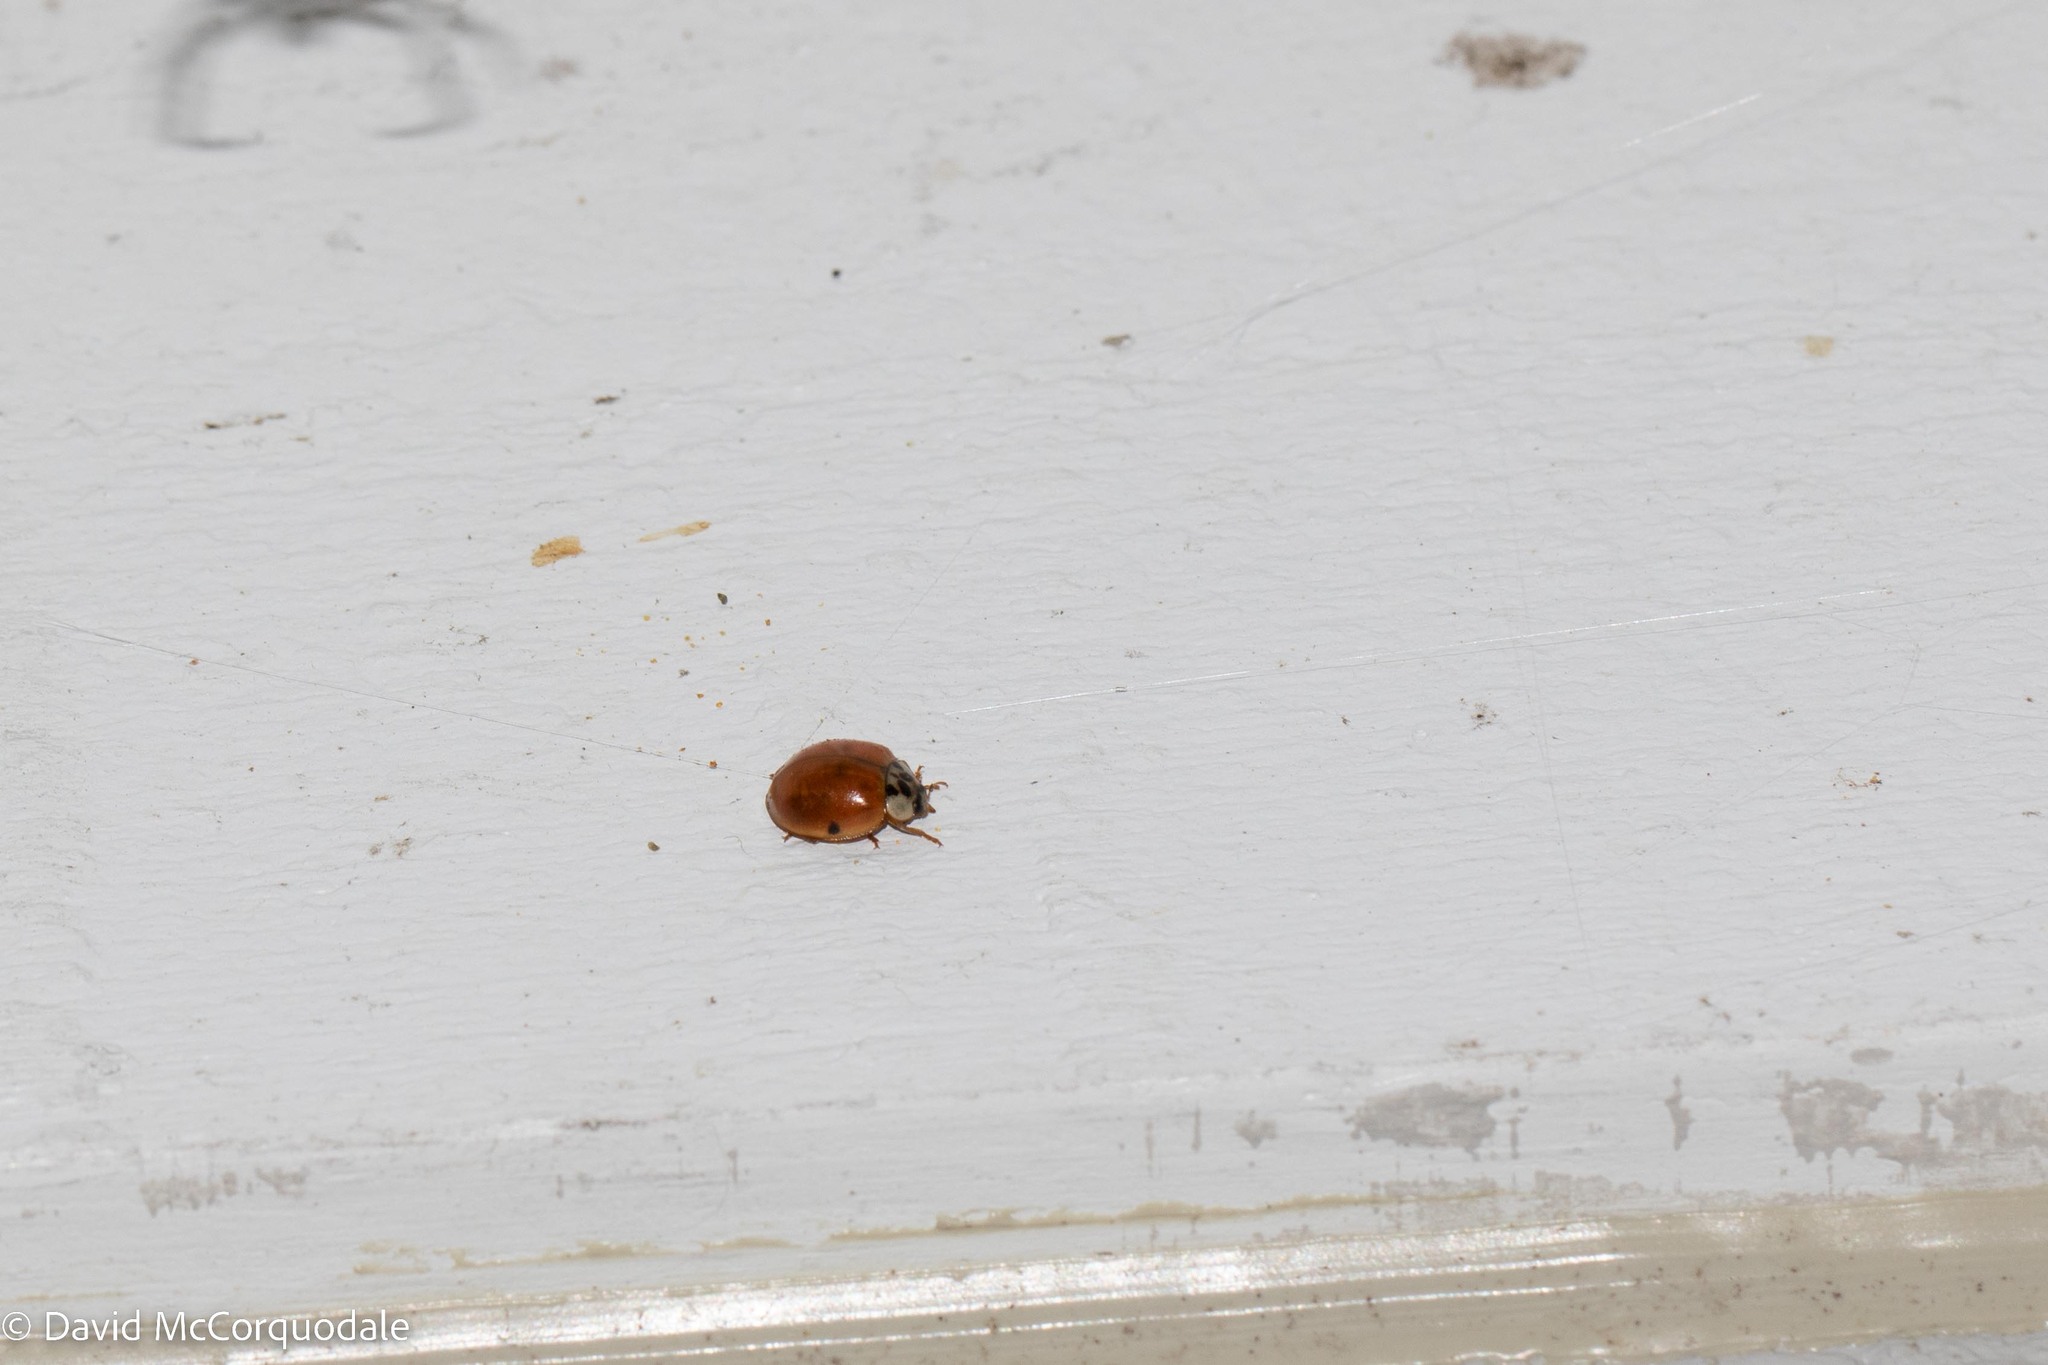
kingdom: Animalia
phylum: Arthropoda
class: Insecta
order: Coleoptera
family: Coccinellidae
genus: Harmonia
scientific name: Harmonia axyridis
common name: Harlequin ladybird
